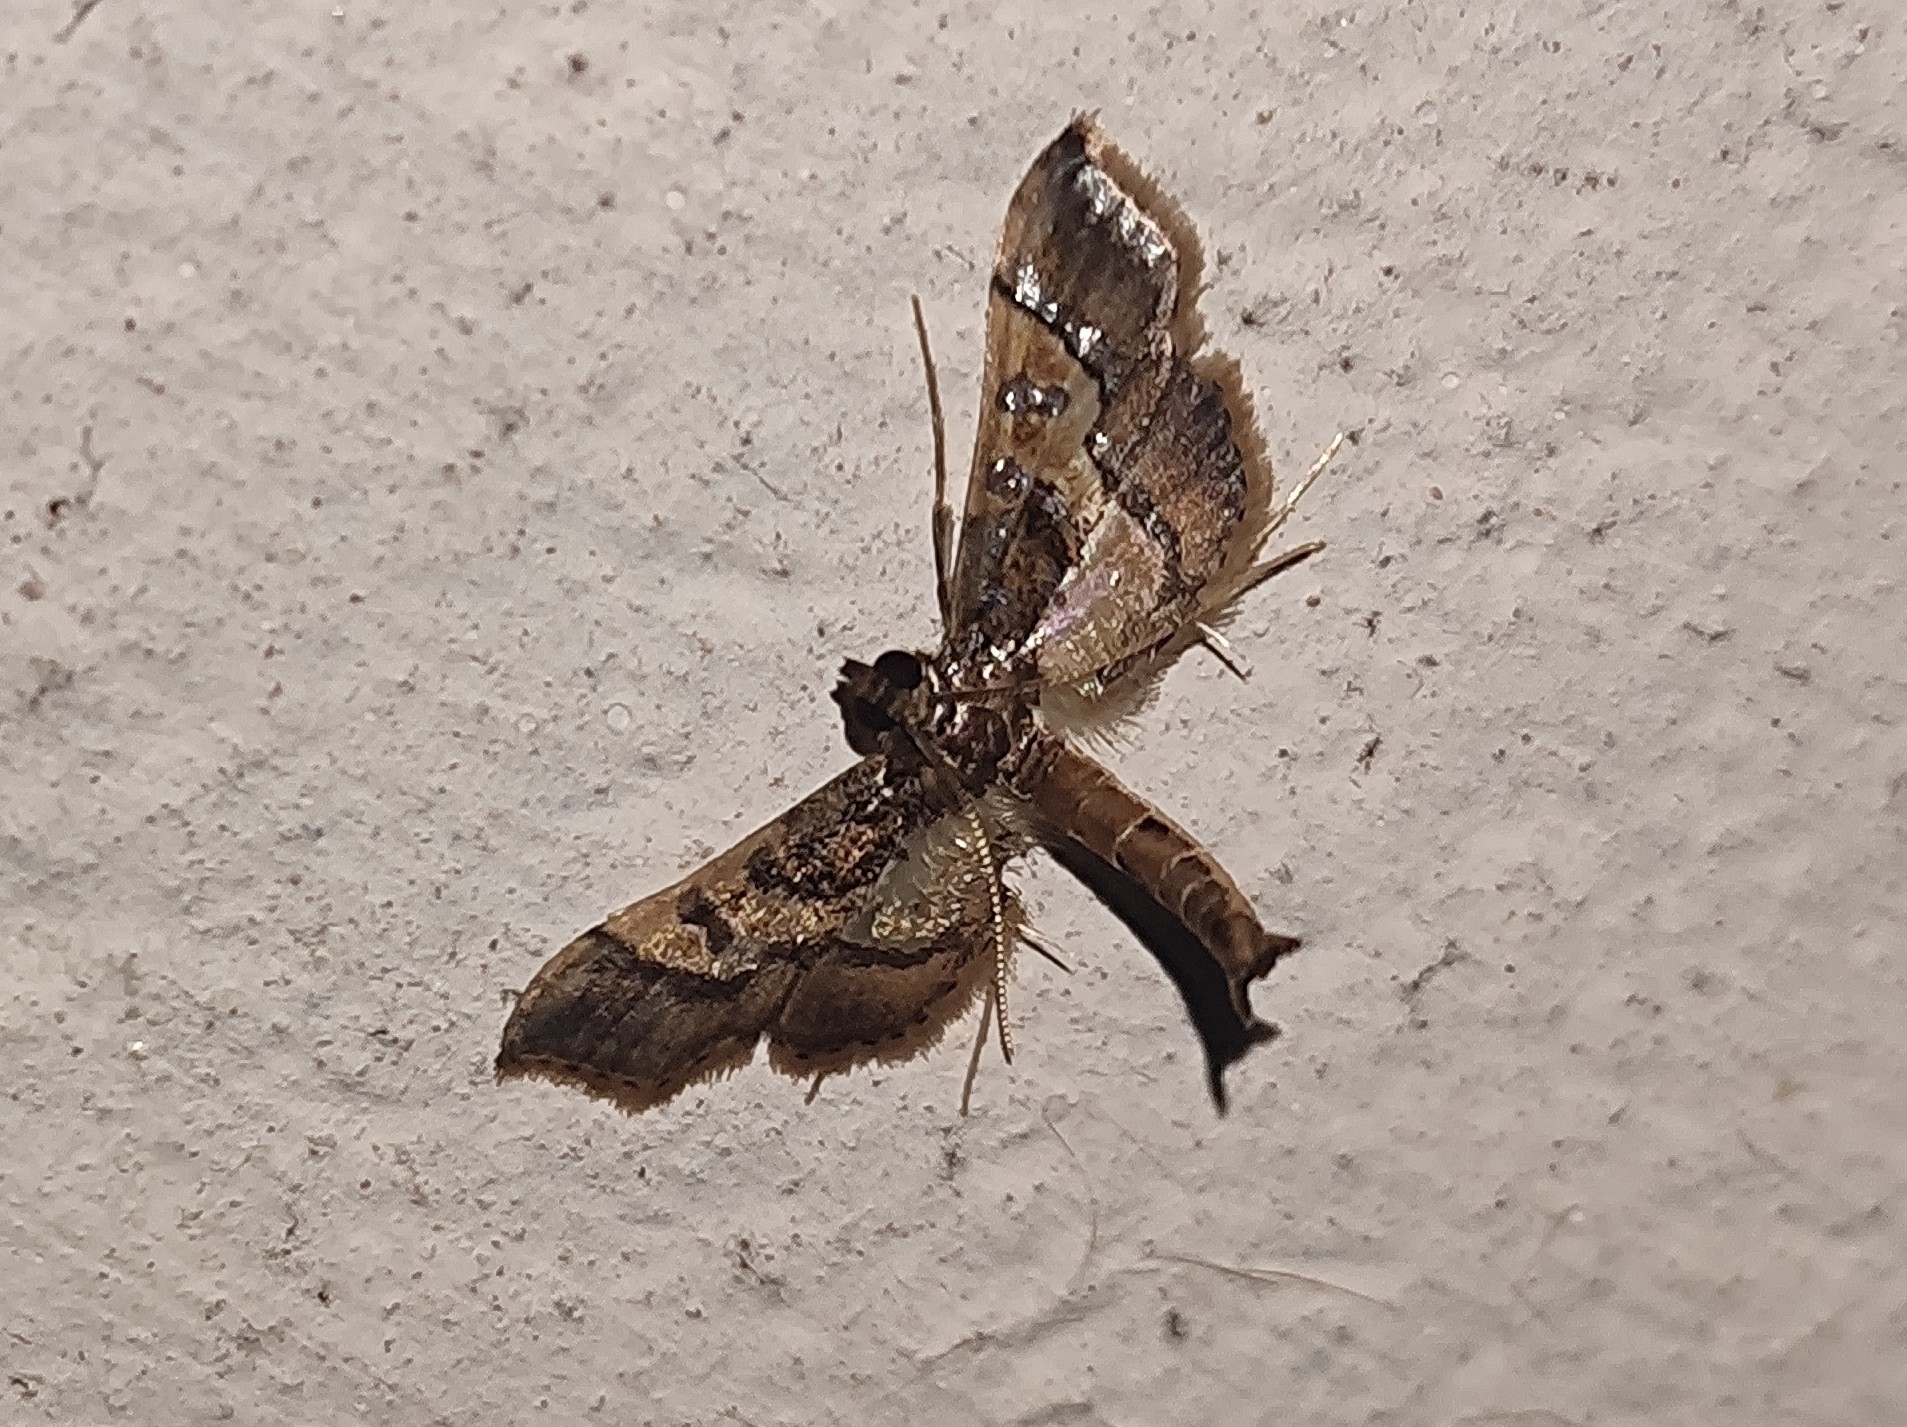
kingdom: Animalia
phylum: Arthropoda
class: Insecta
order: Lepidoptera
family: Crambidae
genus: Hydriris
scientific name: Hydriris ornatalis
